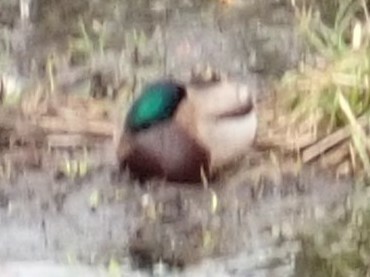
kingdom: Animalia
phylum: Chordata
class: Aves
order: Anseriformes
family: Anatidae
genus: Anas
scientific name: Anas platyrhynchos
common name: Mallard
